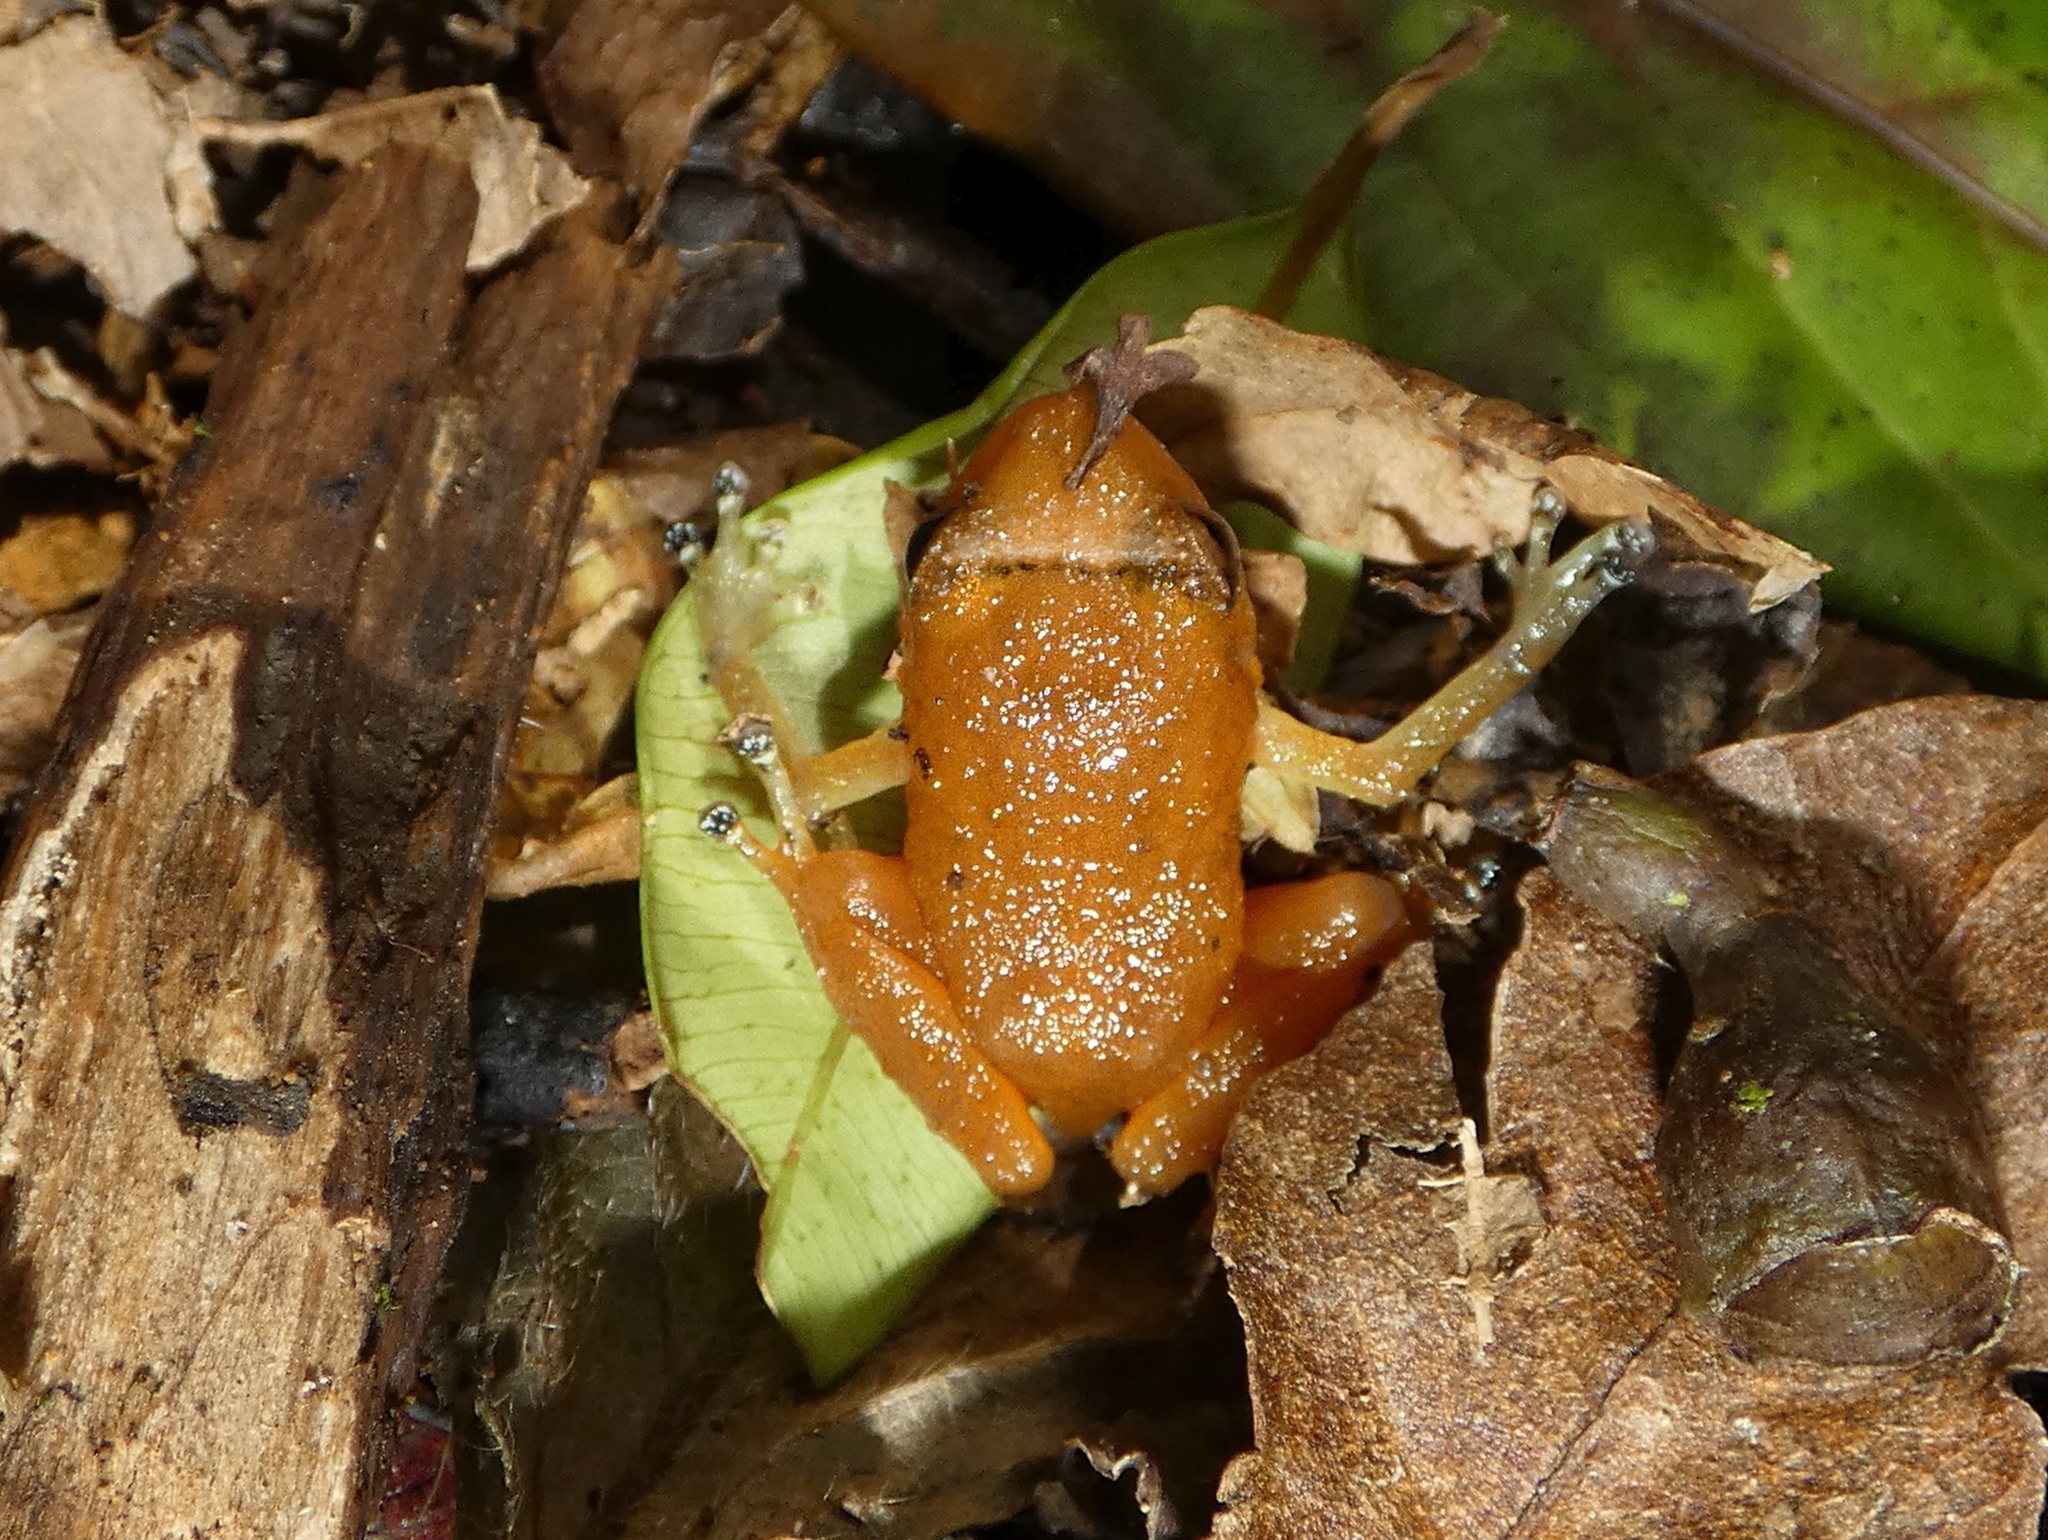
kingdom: Animalia
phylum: Chordata
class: Amphibia
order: Anura
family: Eleutherodactylidae
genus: Diasporus
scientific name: Diasporus citrinobapheus
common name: Yellow dink frog
